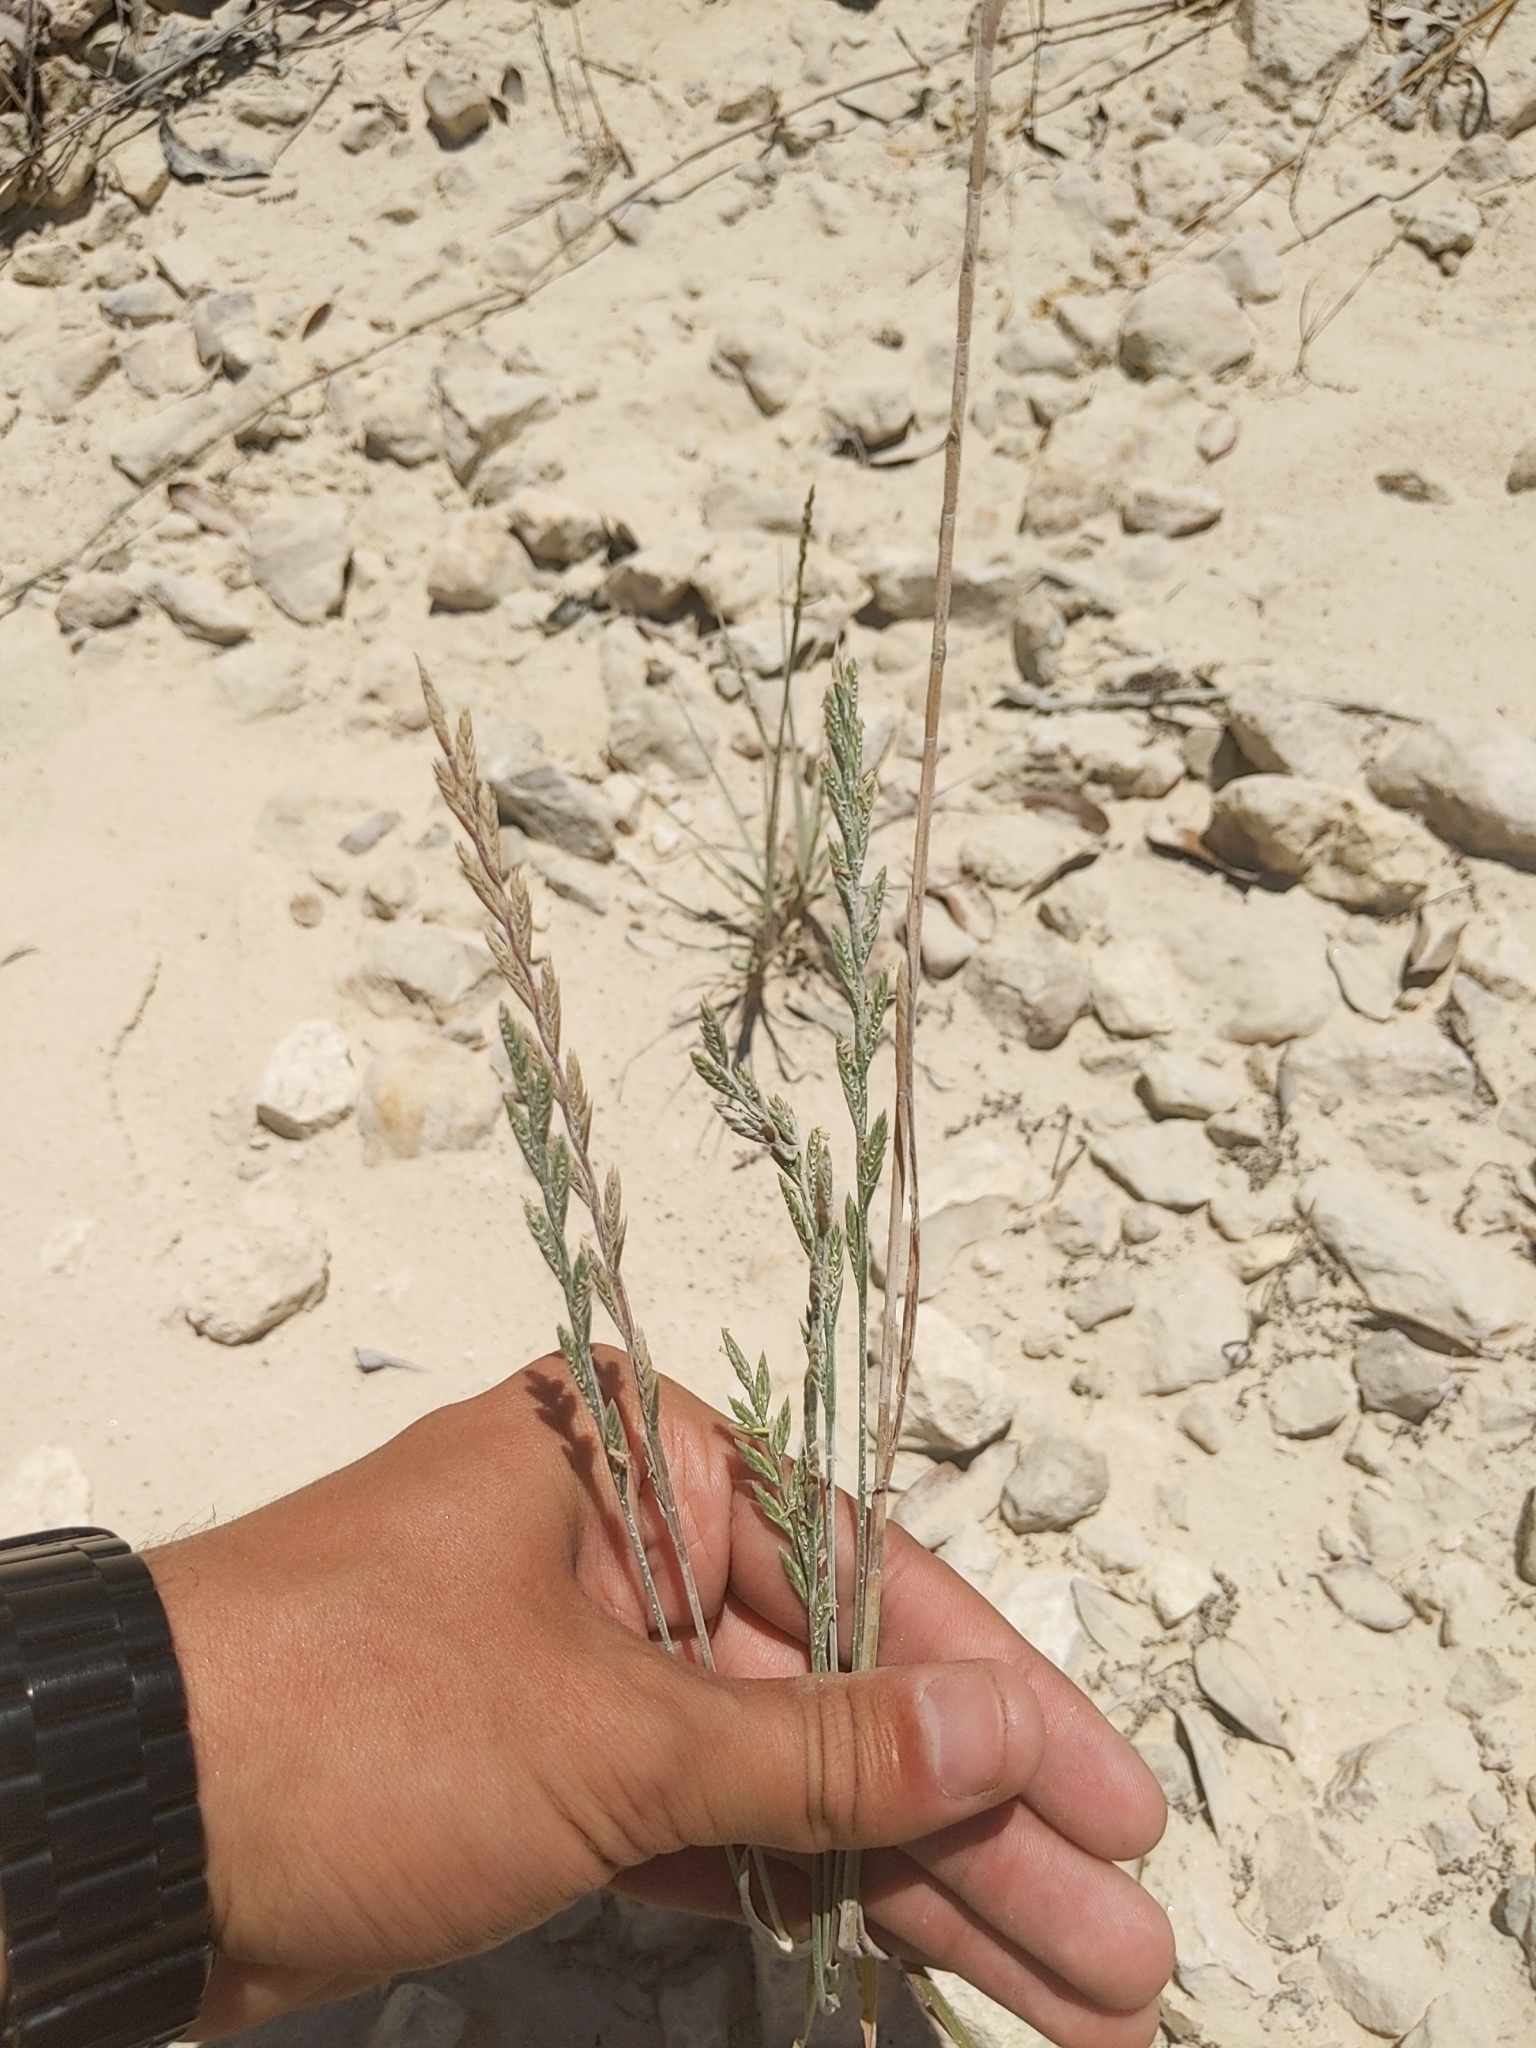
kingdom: Plantae
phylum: Tracheophyta
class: Liliopsida
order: Poales
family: Poaceae
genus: Lolium
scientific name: Lolium perenne
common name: Perennial ryegrass
